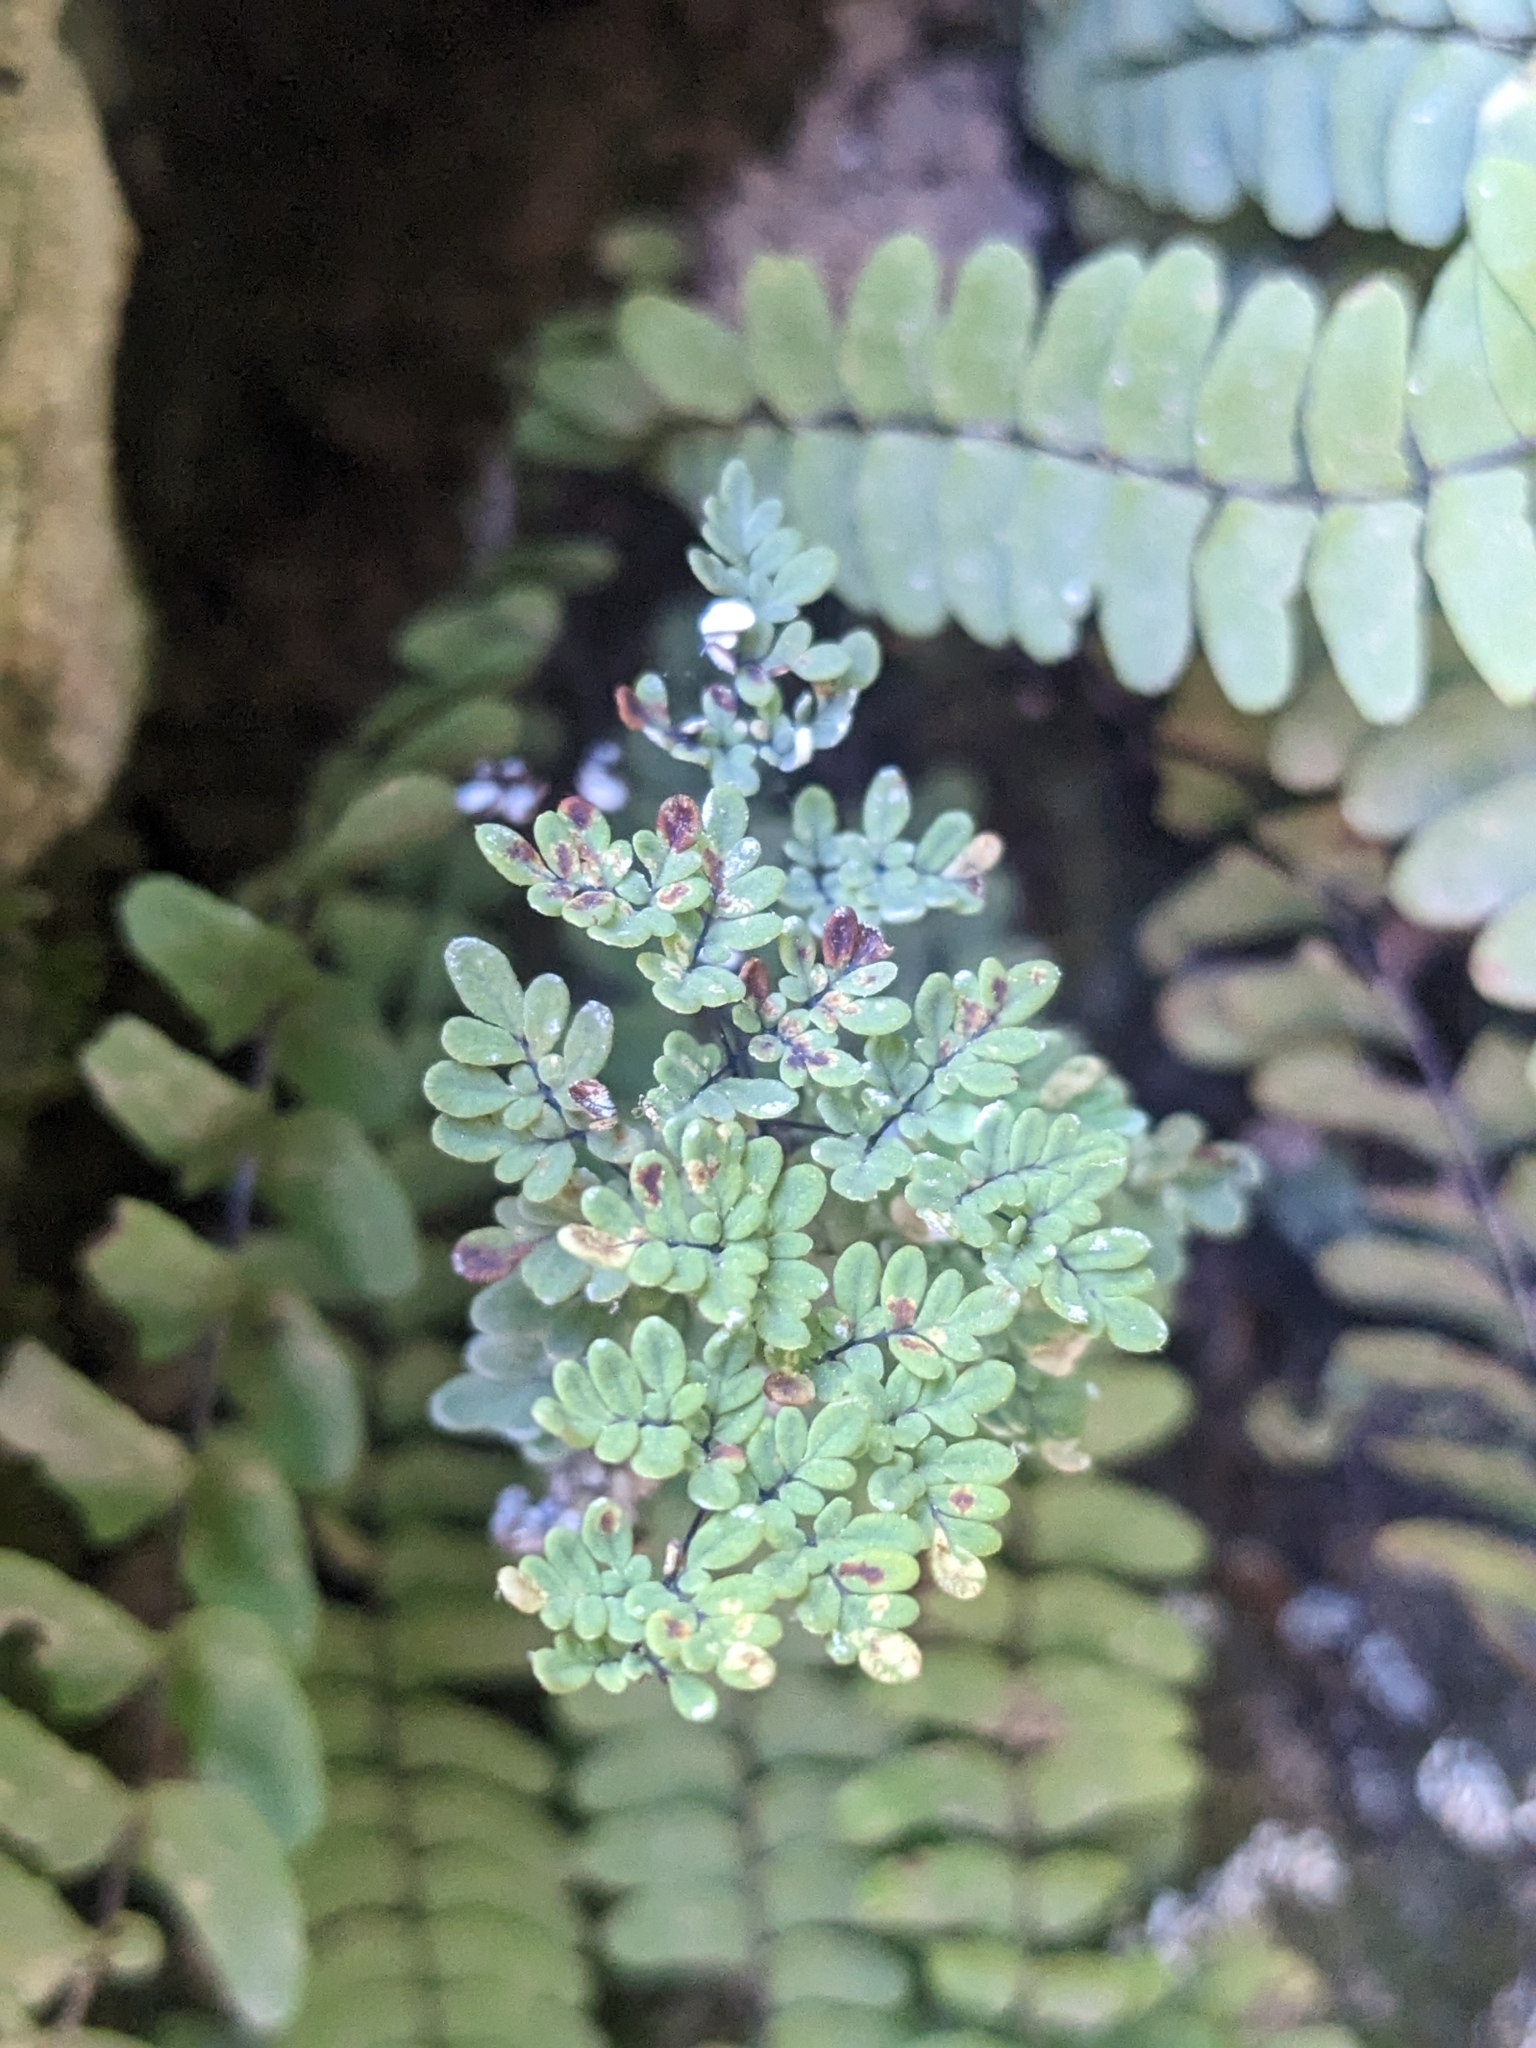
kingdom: Plantae
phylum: Tracheophyta
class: Polypodiopsida
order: Polypodiales
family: Pteridaceae
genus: Argyrochosma
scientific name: Argyrochosma limitanea
